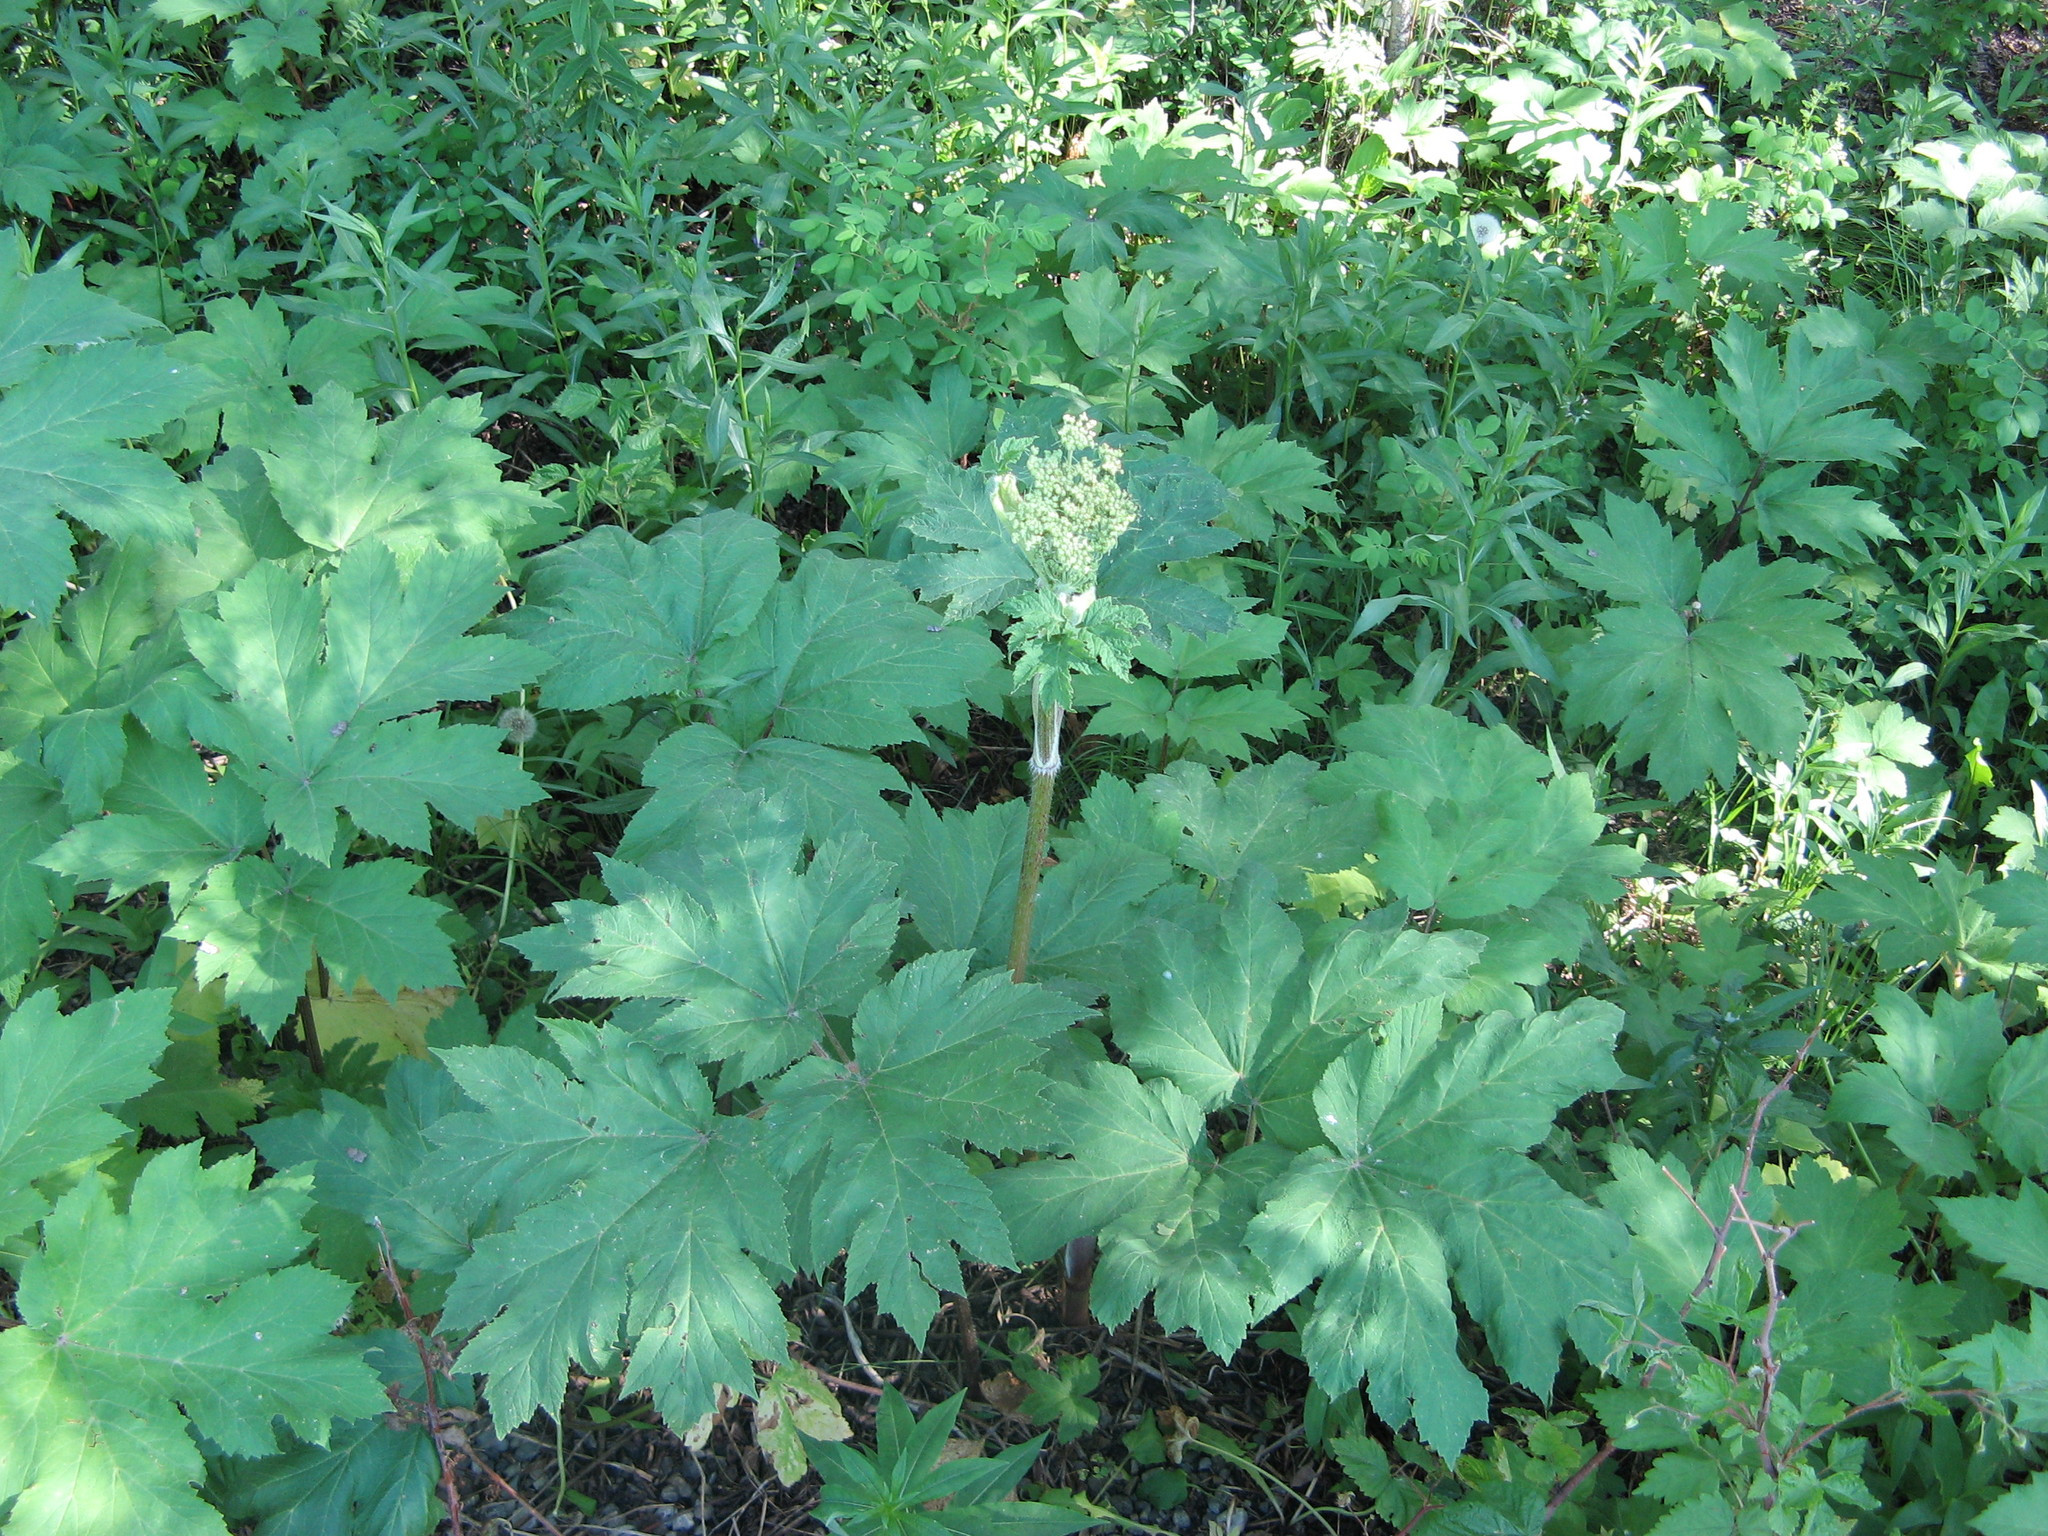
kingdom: Plantae
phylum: Tracheophyta
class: Magnoliopsida
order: Apiales
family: Apiaceae
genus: Heracleum
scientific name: Heracleum maximum
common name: American cow parsnip
